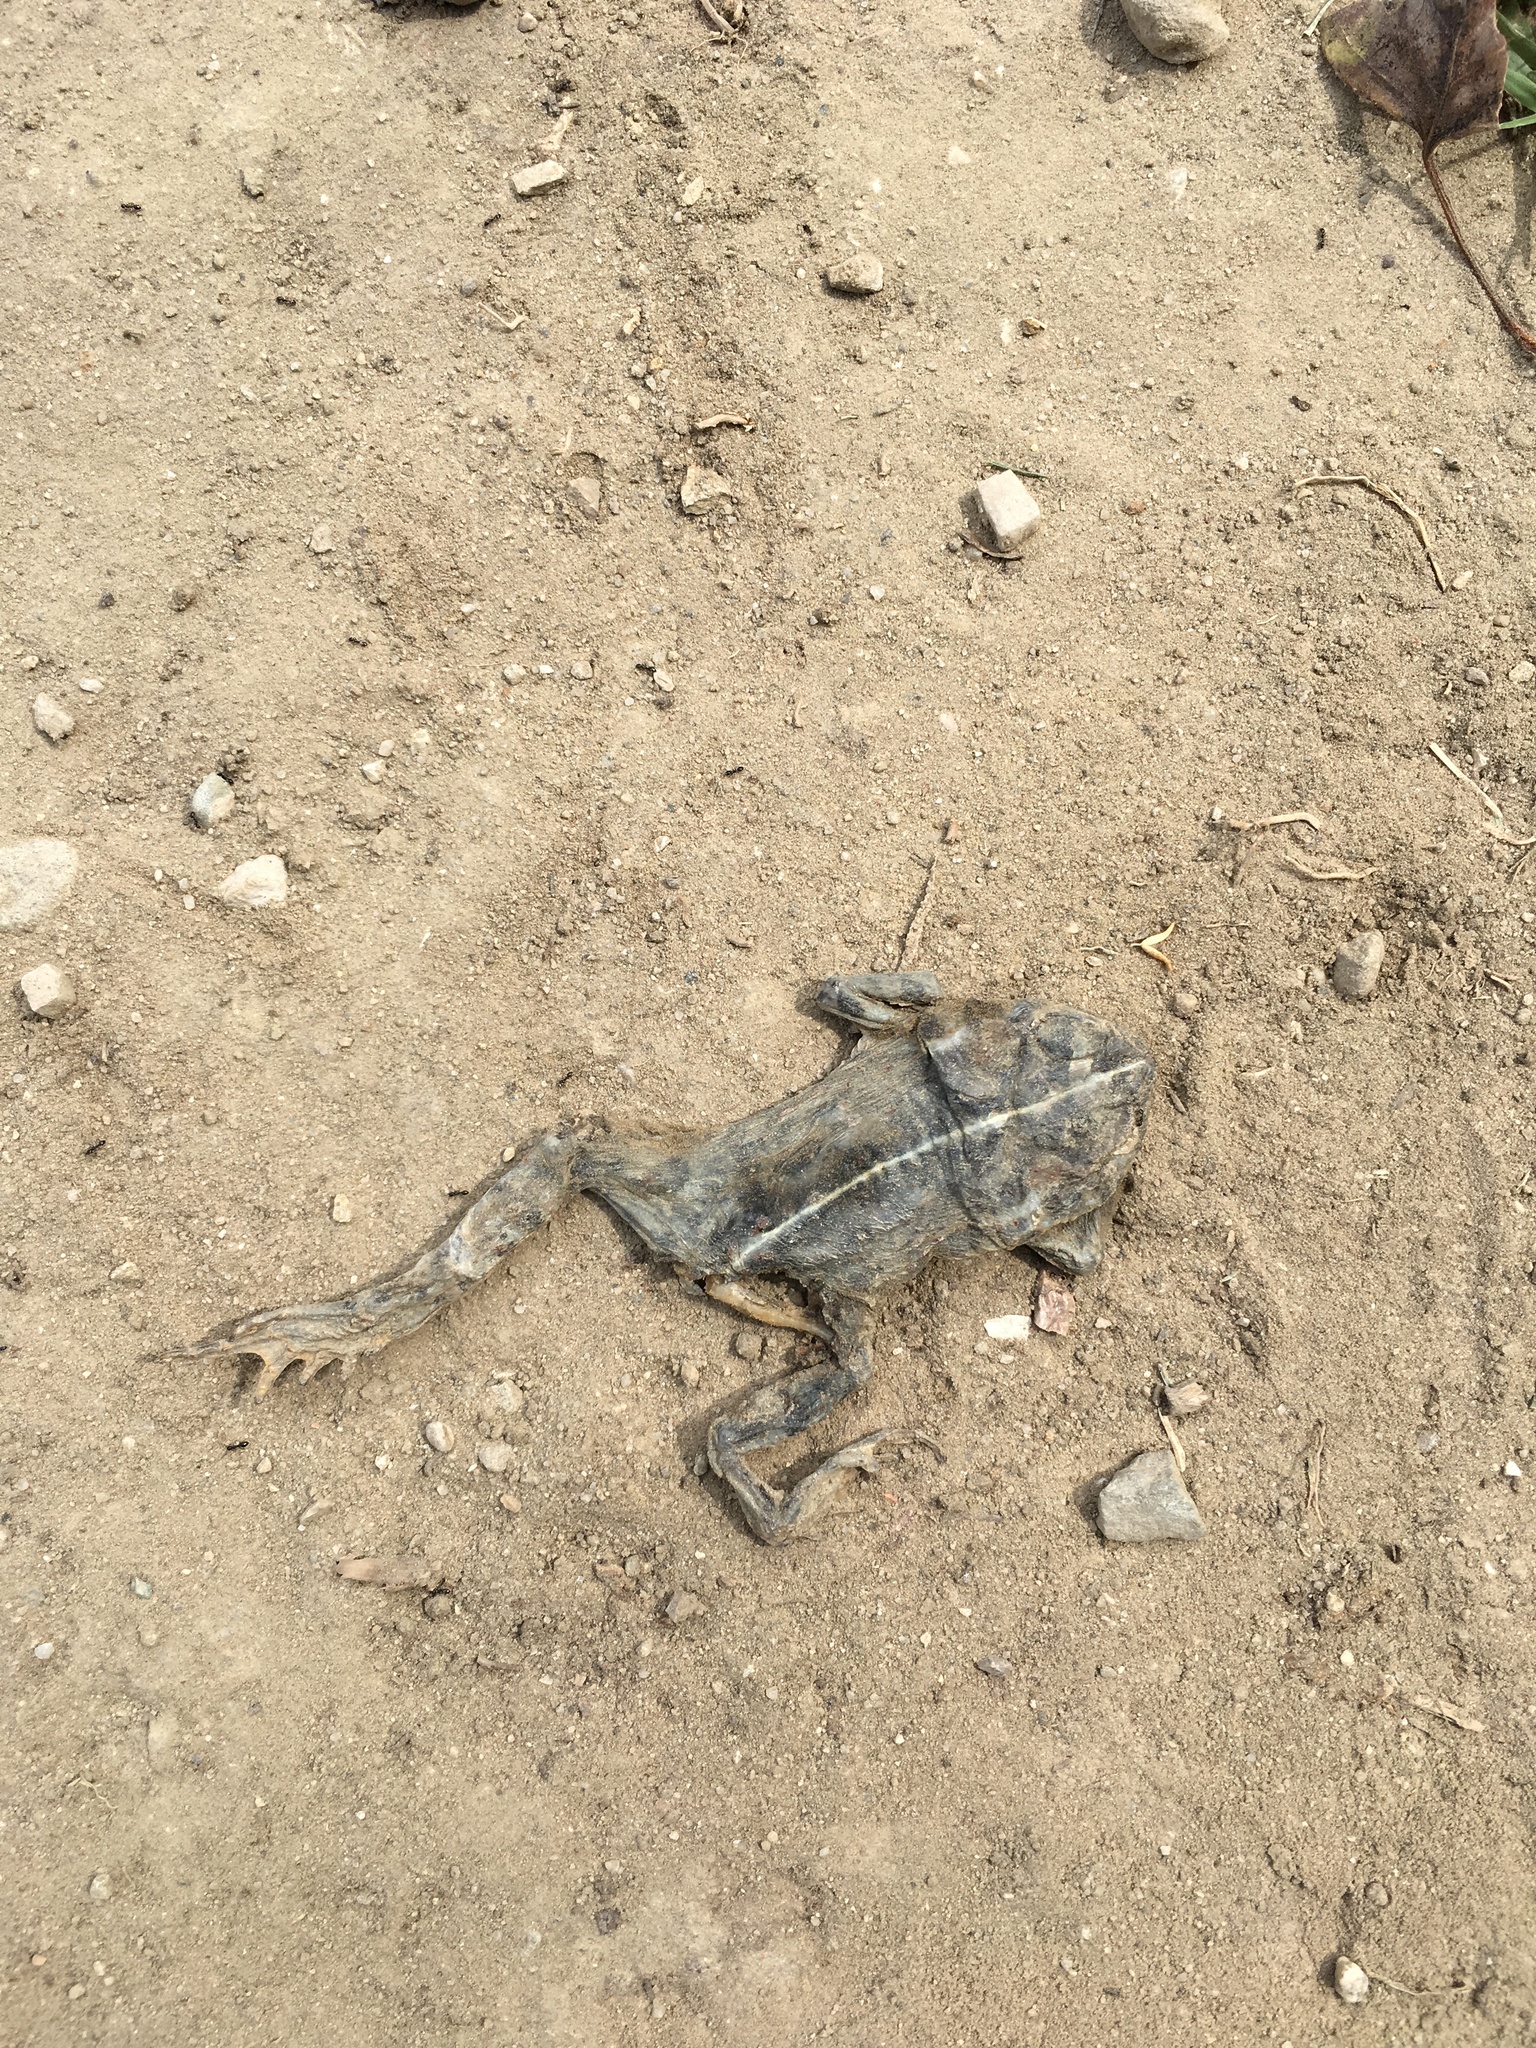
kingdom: Animalia
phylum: Chordata
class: Amphibia
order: Anura
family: Bufonidae
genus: Anaxyrus
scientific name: Anaxyrus boreas
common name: Western toad
